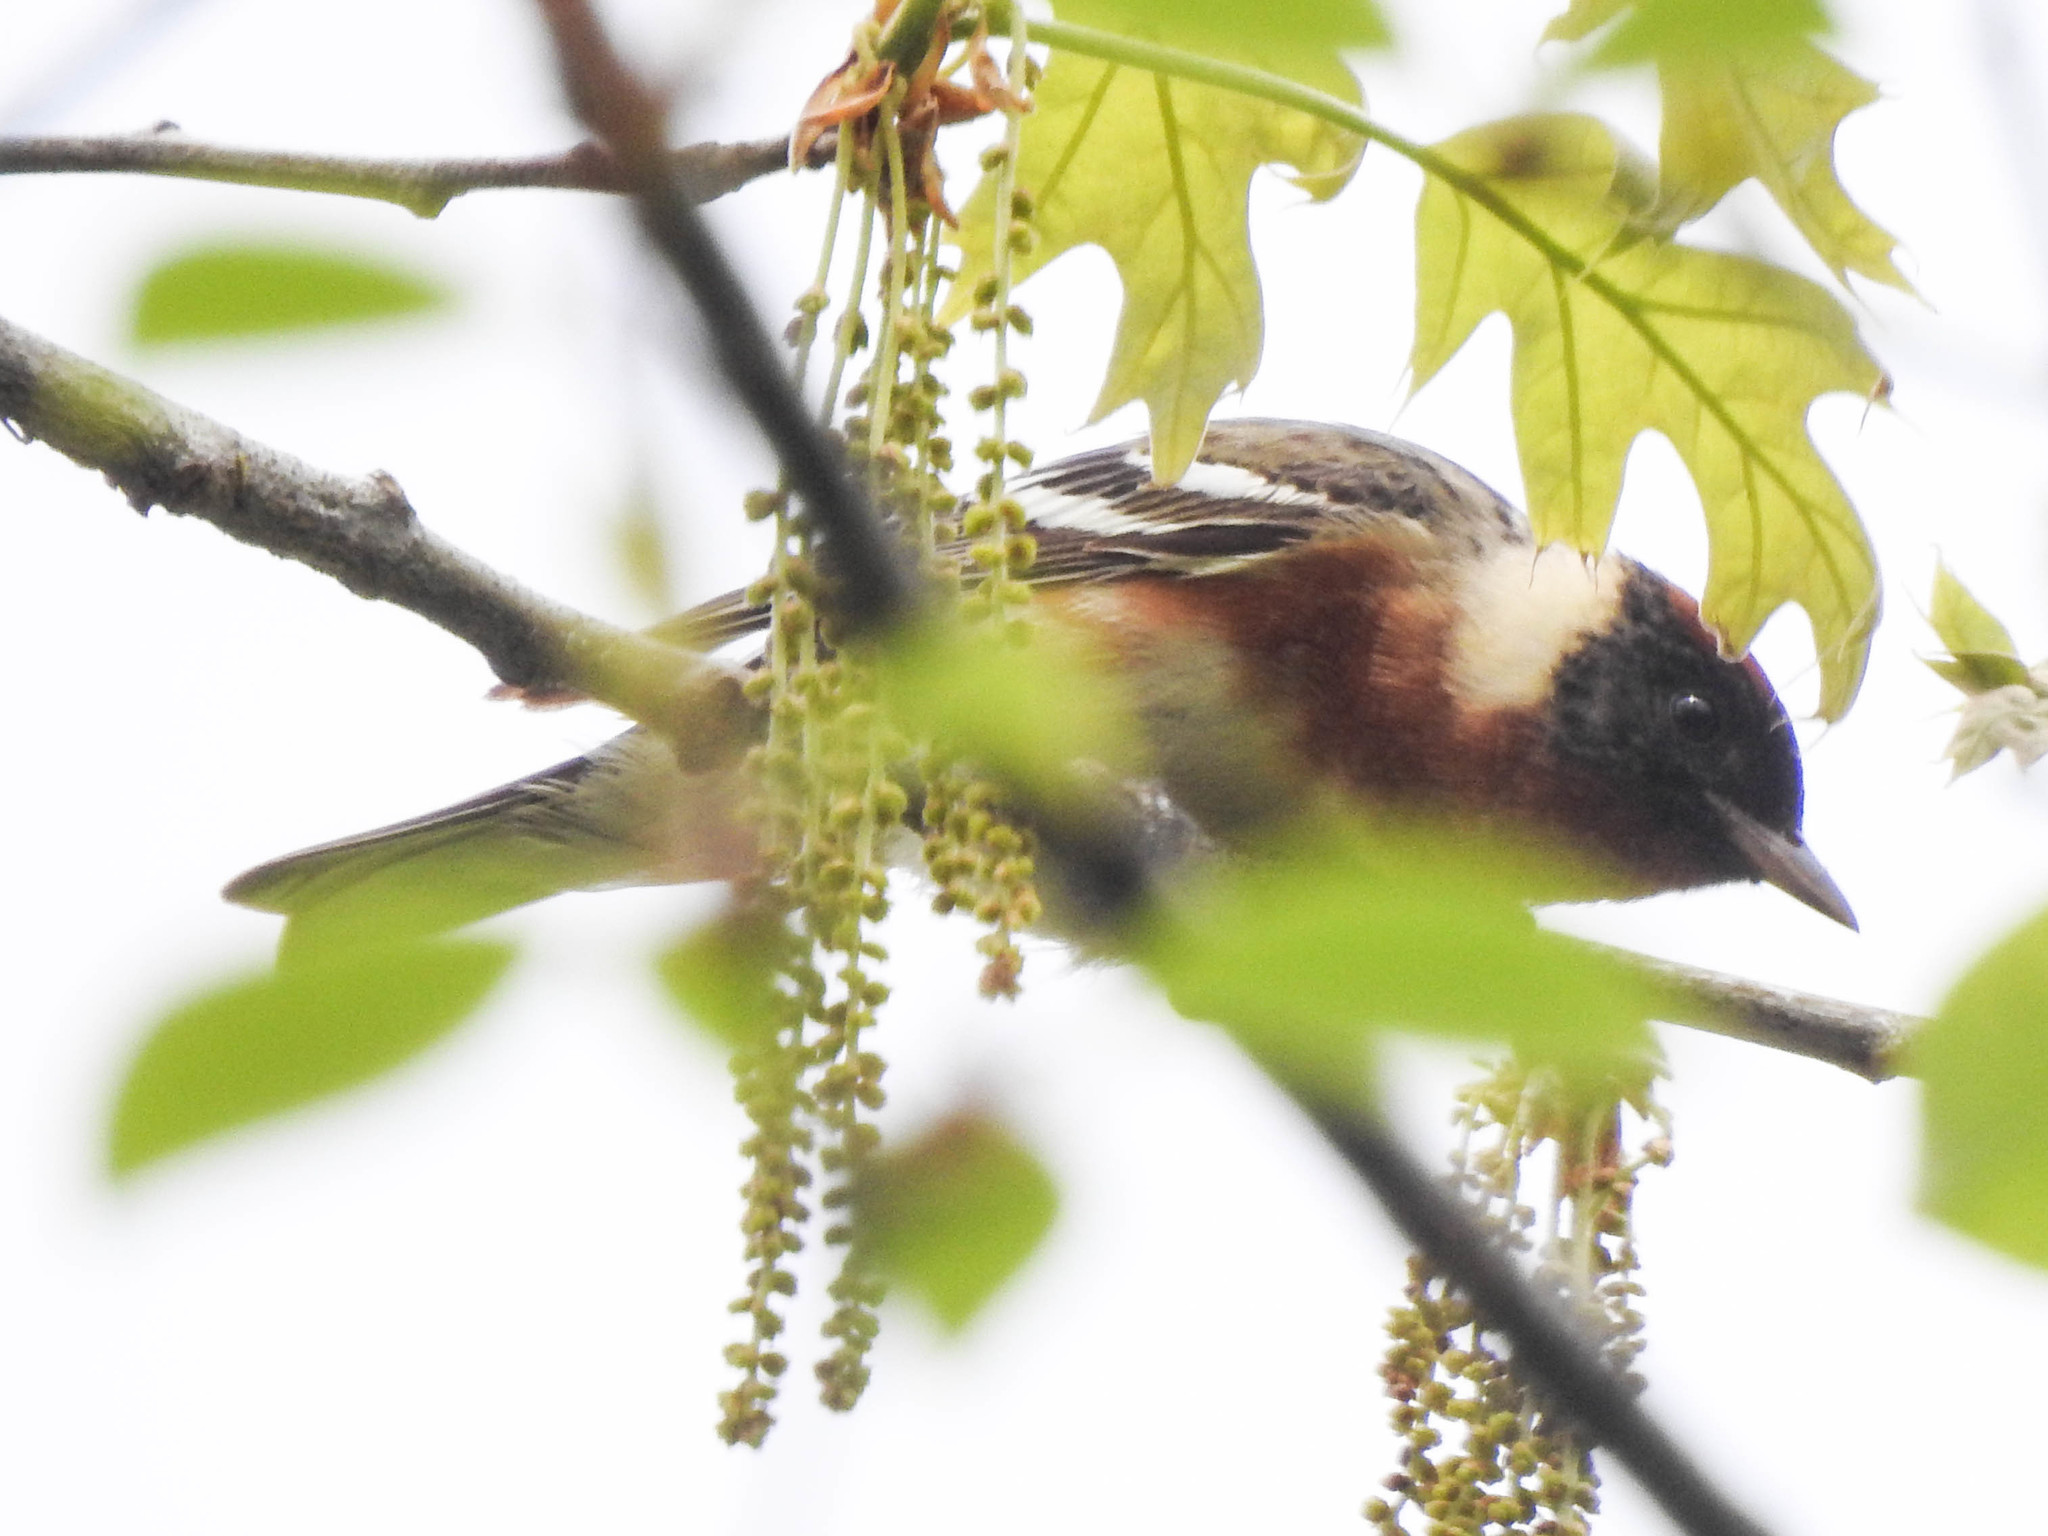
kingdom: Animalia
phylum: Chordata
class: Aves
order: Passeriformes
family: Parulidae
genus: Setophaga
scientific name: Setophaga castanea
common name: Bay-breasted warbler
